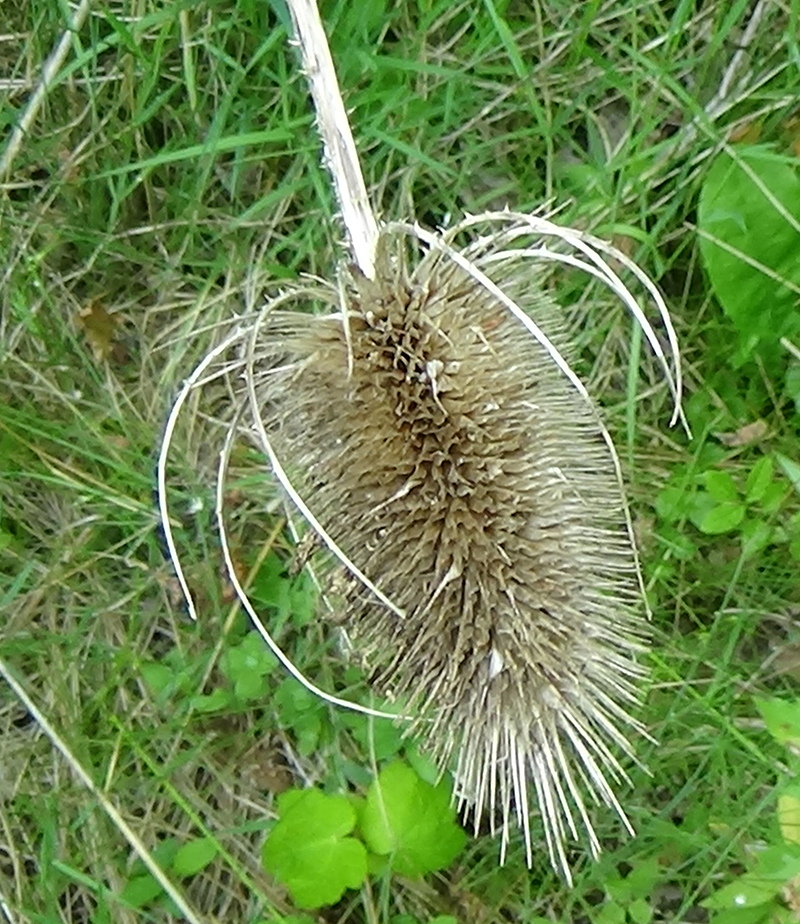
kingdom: Plantae
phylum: Tracheophyta
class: Magnoliopsida
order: Dipsacales
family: Caprifoliaceae
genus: Dipsacus
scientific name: Dipsacus fullonum
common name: Teasel
